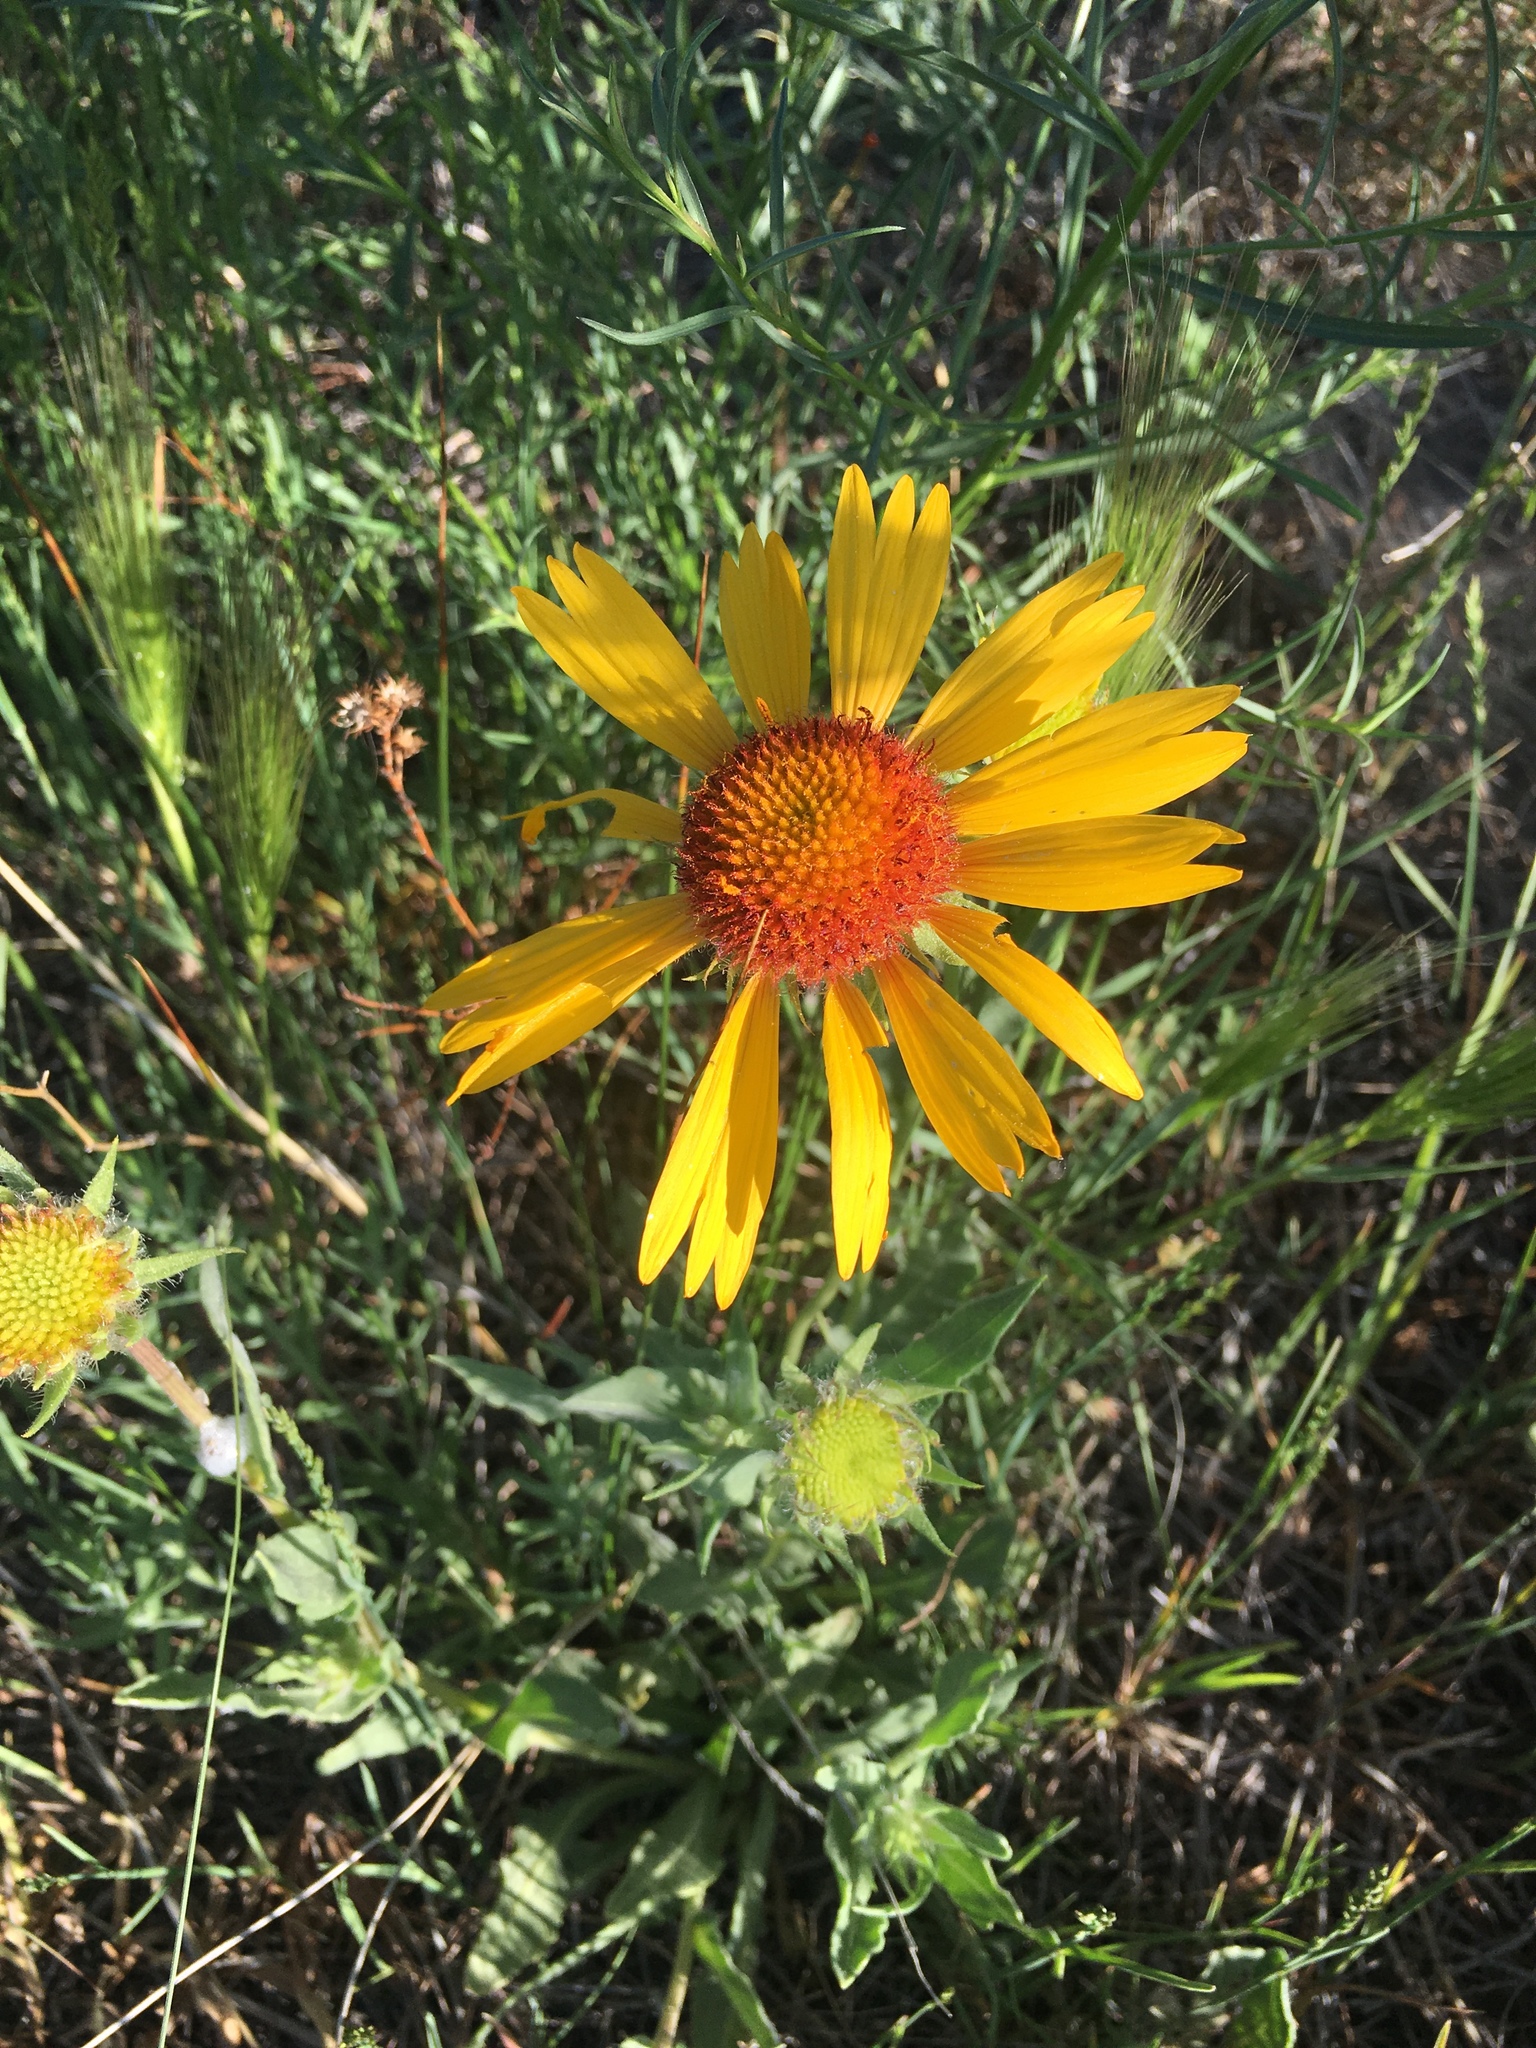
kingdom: Plantae
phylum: Tracheophyta
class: Magnoliopsida
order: Asterales
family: Asteraceae
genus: Gaillardia
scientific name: Gaillardia aristata
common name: Blanket-flower
